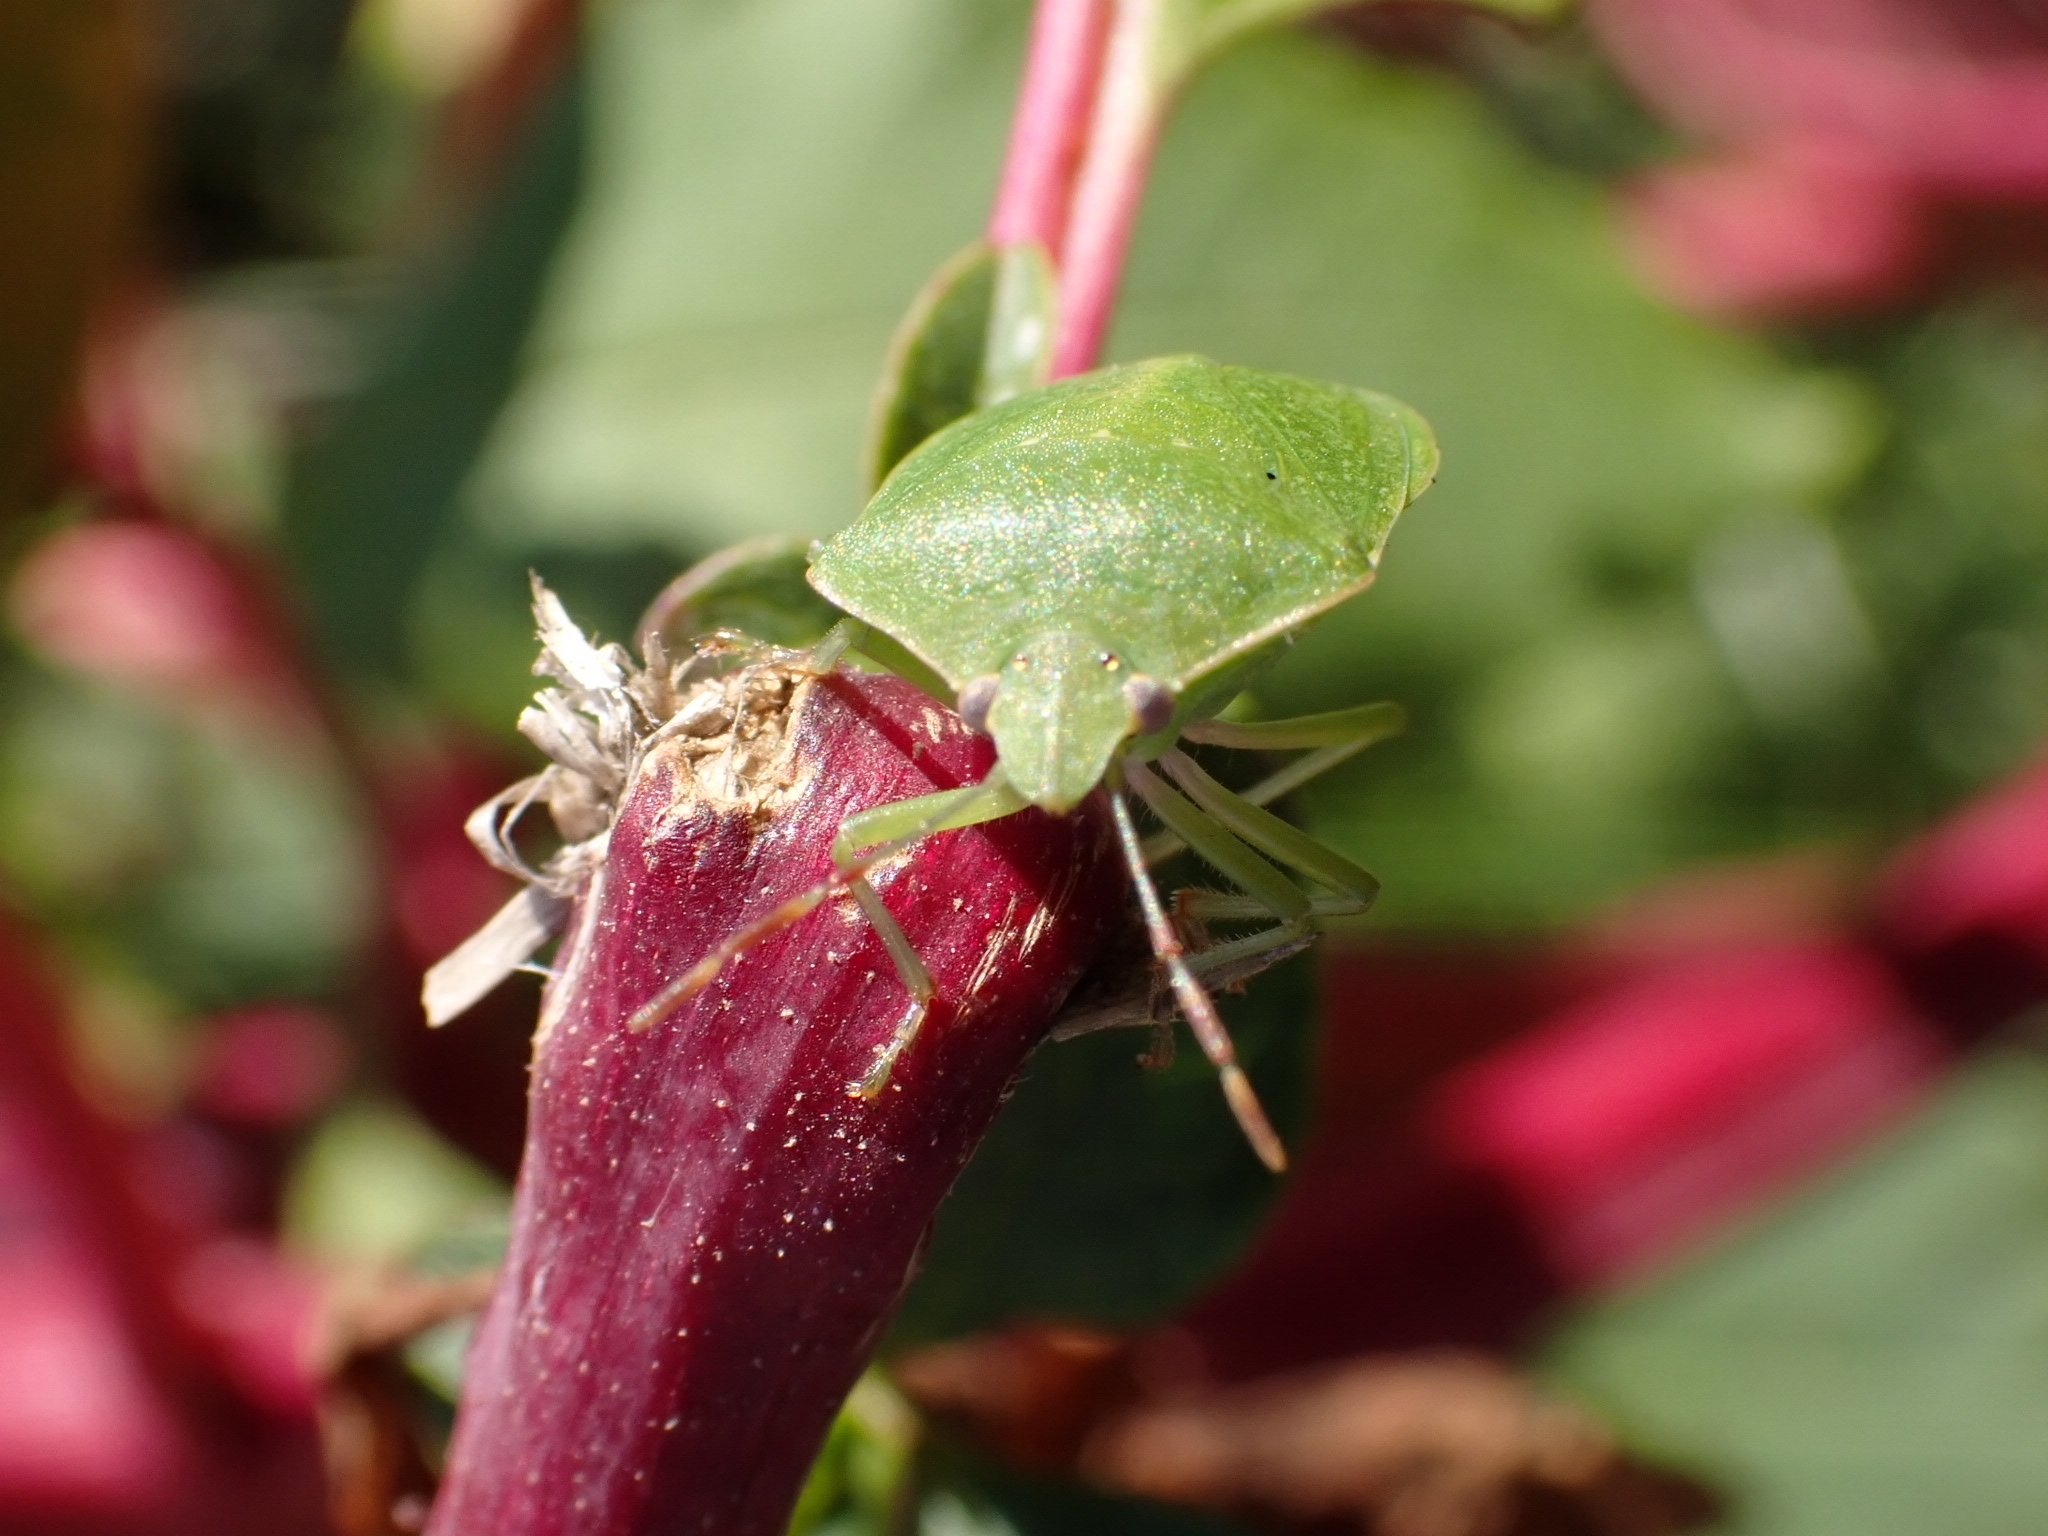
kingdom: Animalia
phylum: Arthropoda
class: Insecta
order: Hemiptera
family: Pentatomidae
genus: Nezara
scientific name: Nezara viridula
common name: Southern green stink bug
